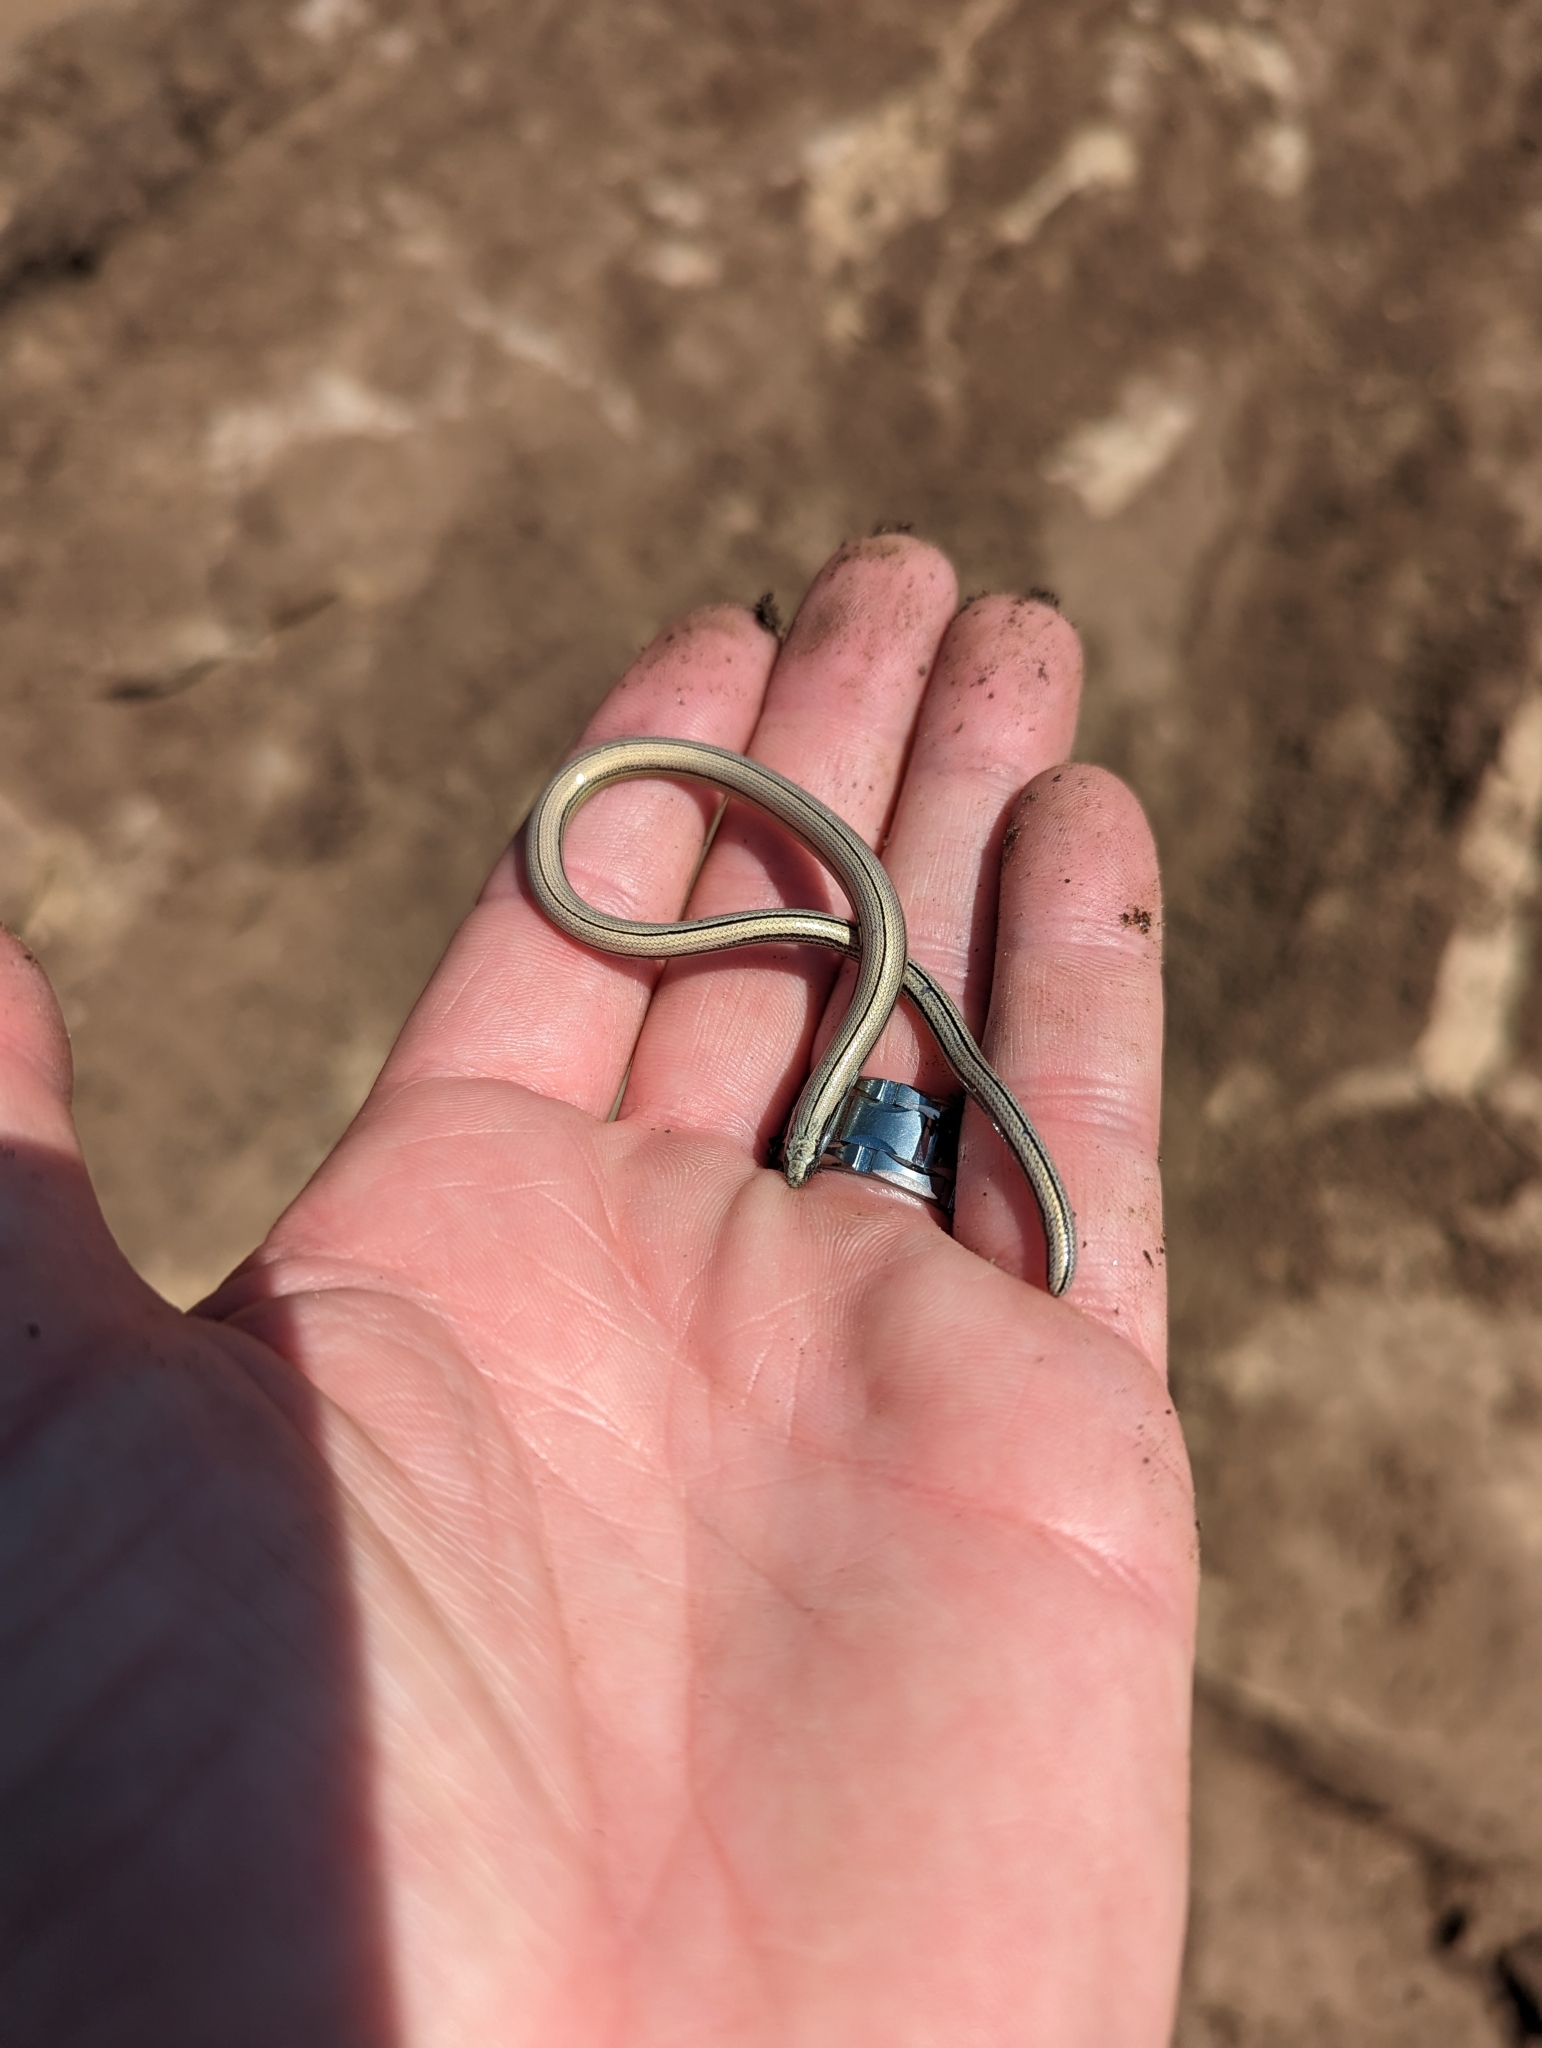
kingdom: Animalia
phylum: Chordata
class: Squamata
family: Anguidae
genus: Anniella
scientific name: Anniella stebbinsi
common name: Southern california legless lizard
